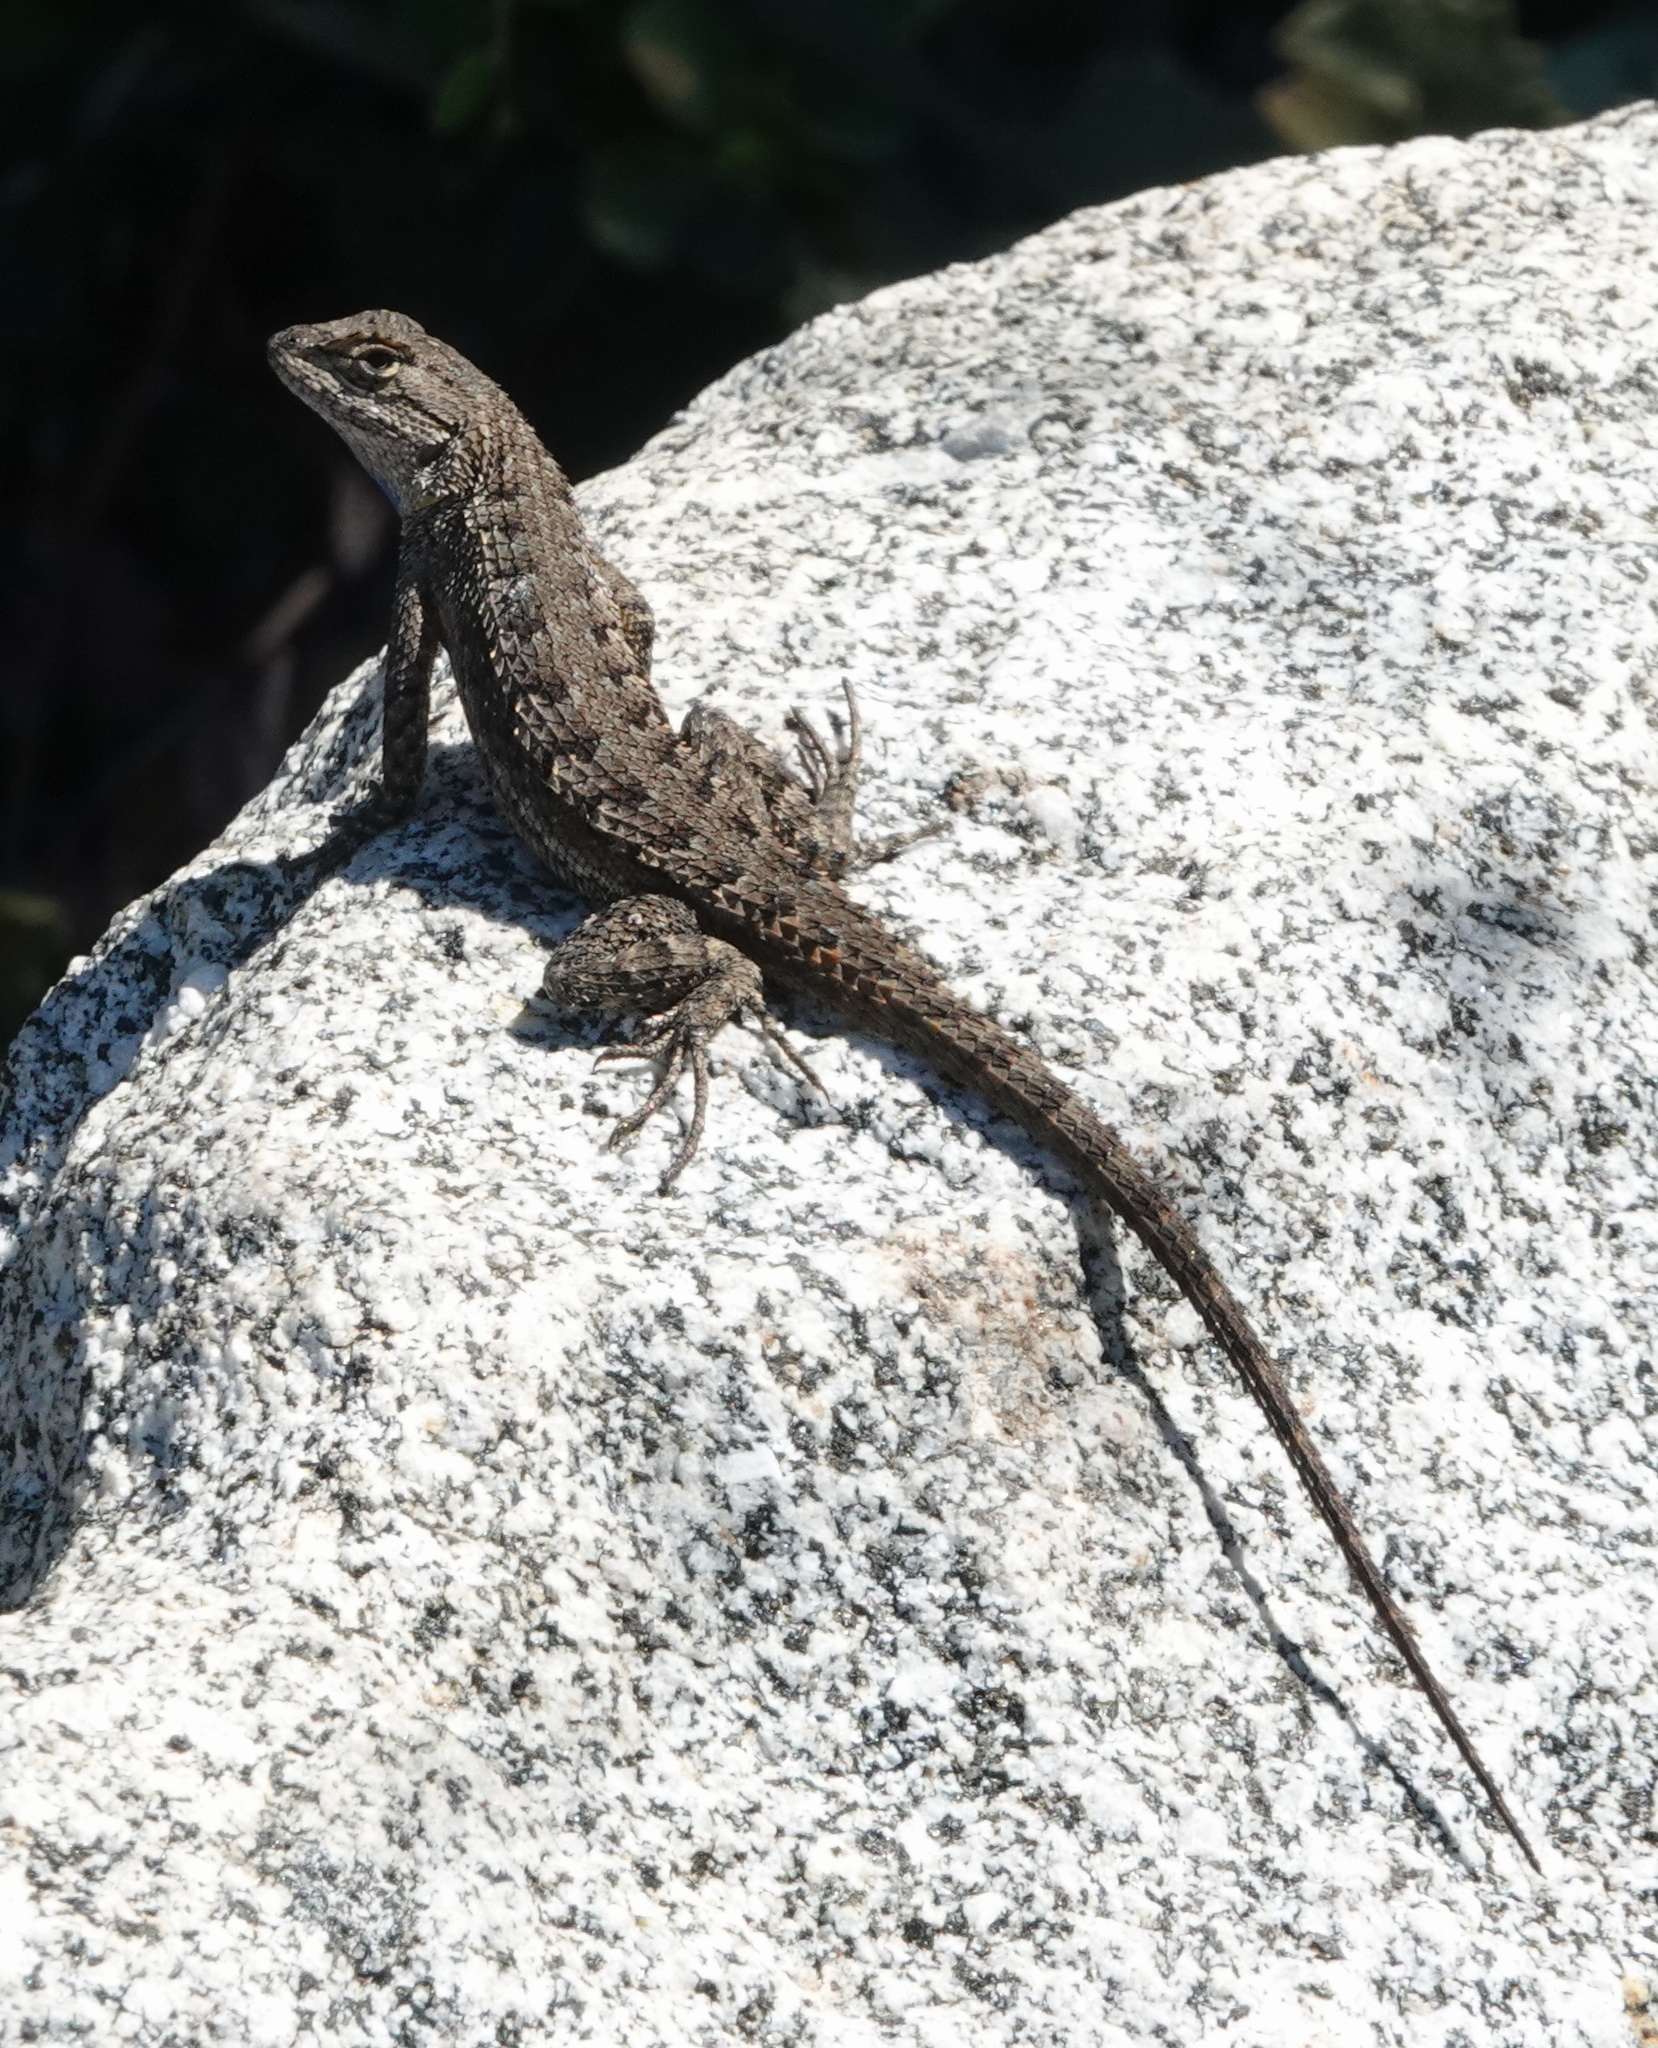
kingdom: Animalia
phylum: Chordata
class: Squamata
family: Phrynosomatidae
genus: Sceloporus
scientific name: Sceloporus occidentalis
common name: Western fence lizard
